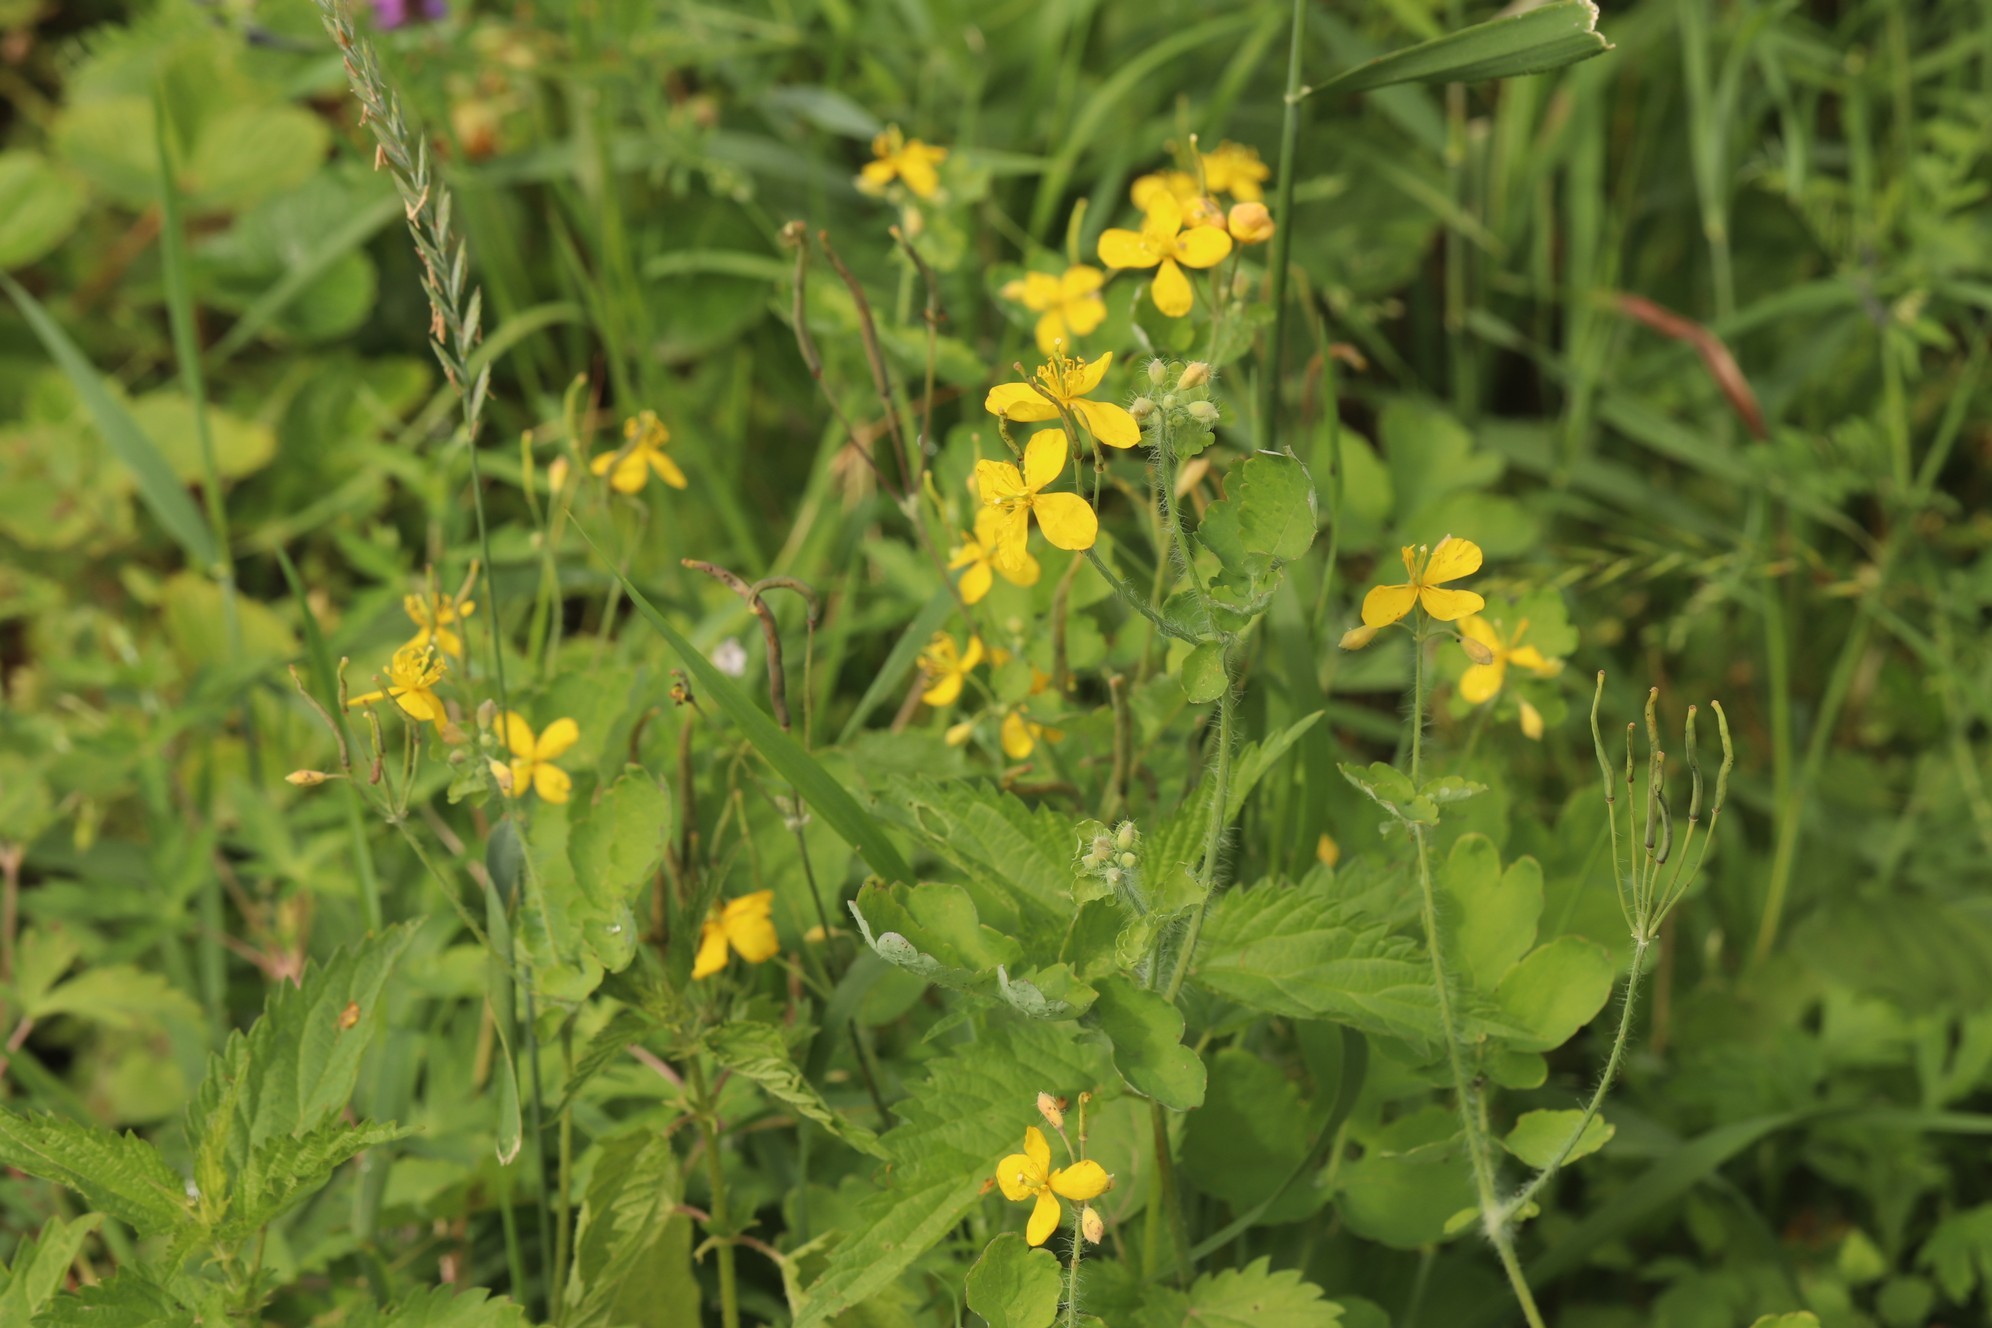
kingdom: Plantae
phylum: Tracheophyta
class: Magnoliopsida
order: Ranunculales
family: Papaveraceae
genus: Chelidonium
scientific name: Chelidonium majus
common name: Greater celandine
